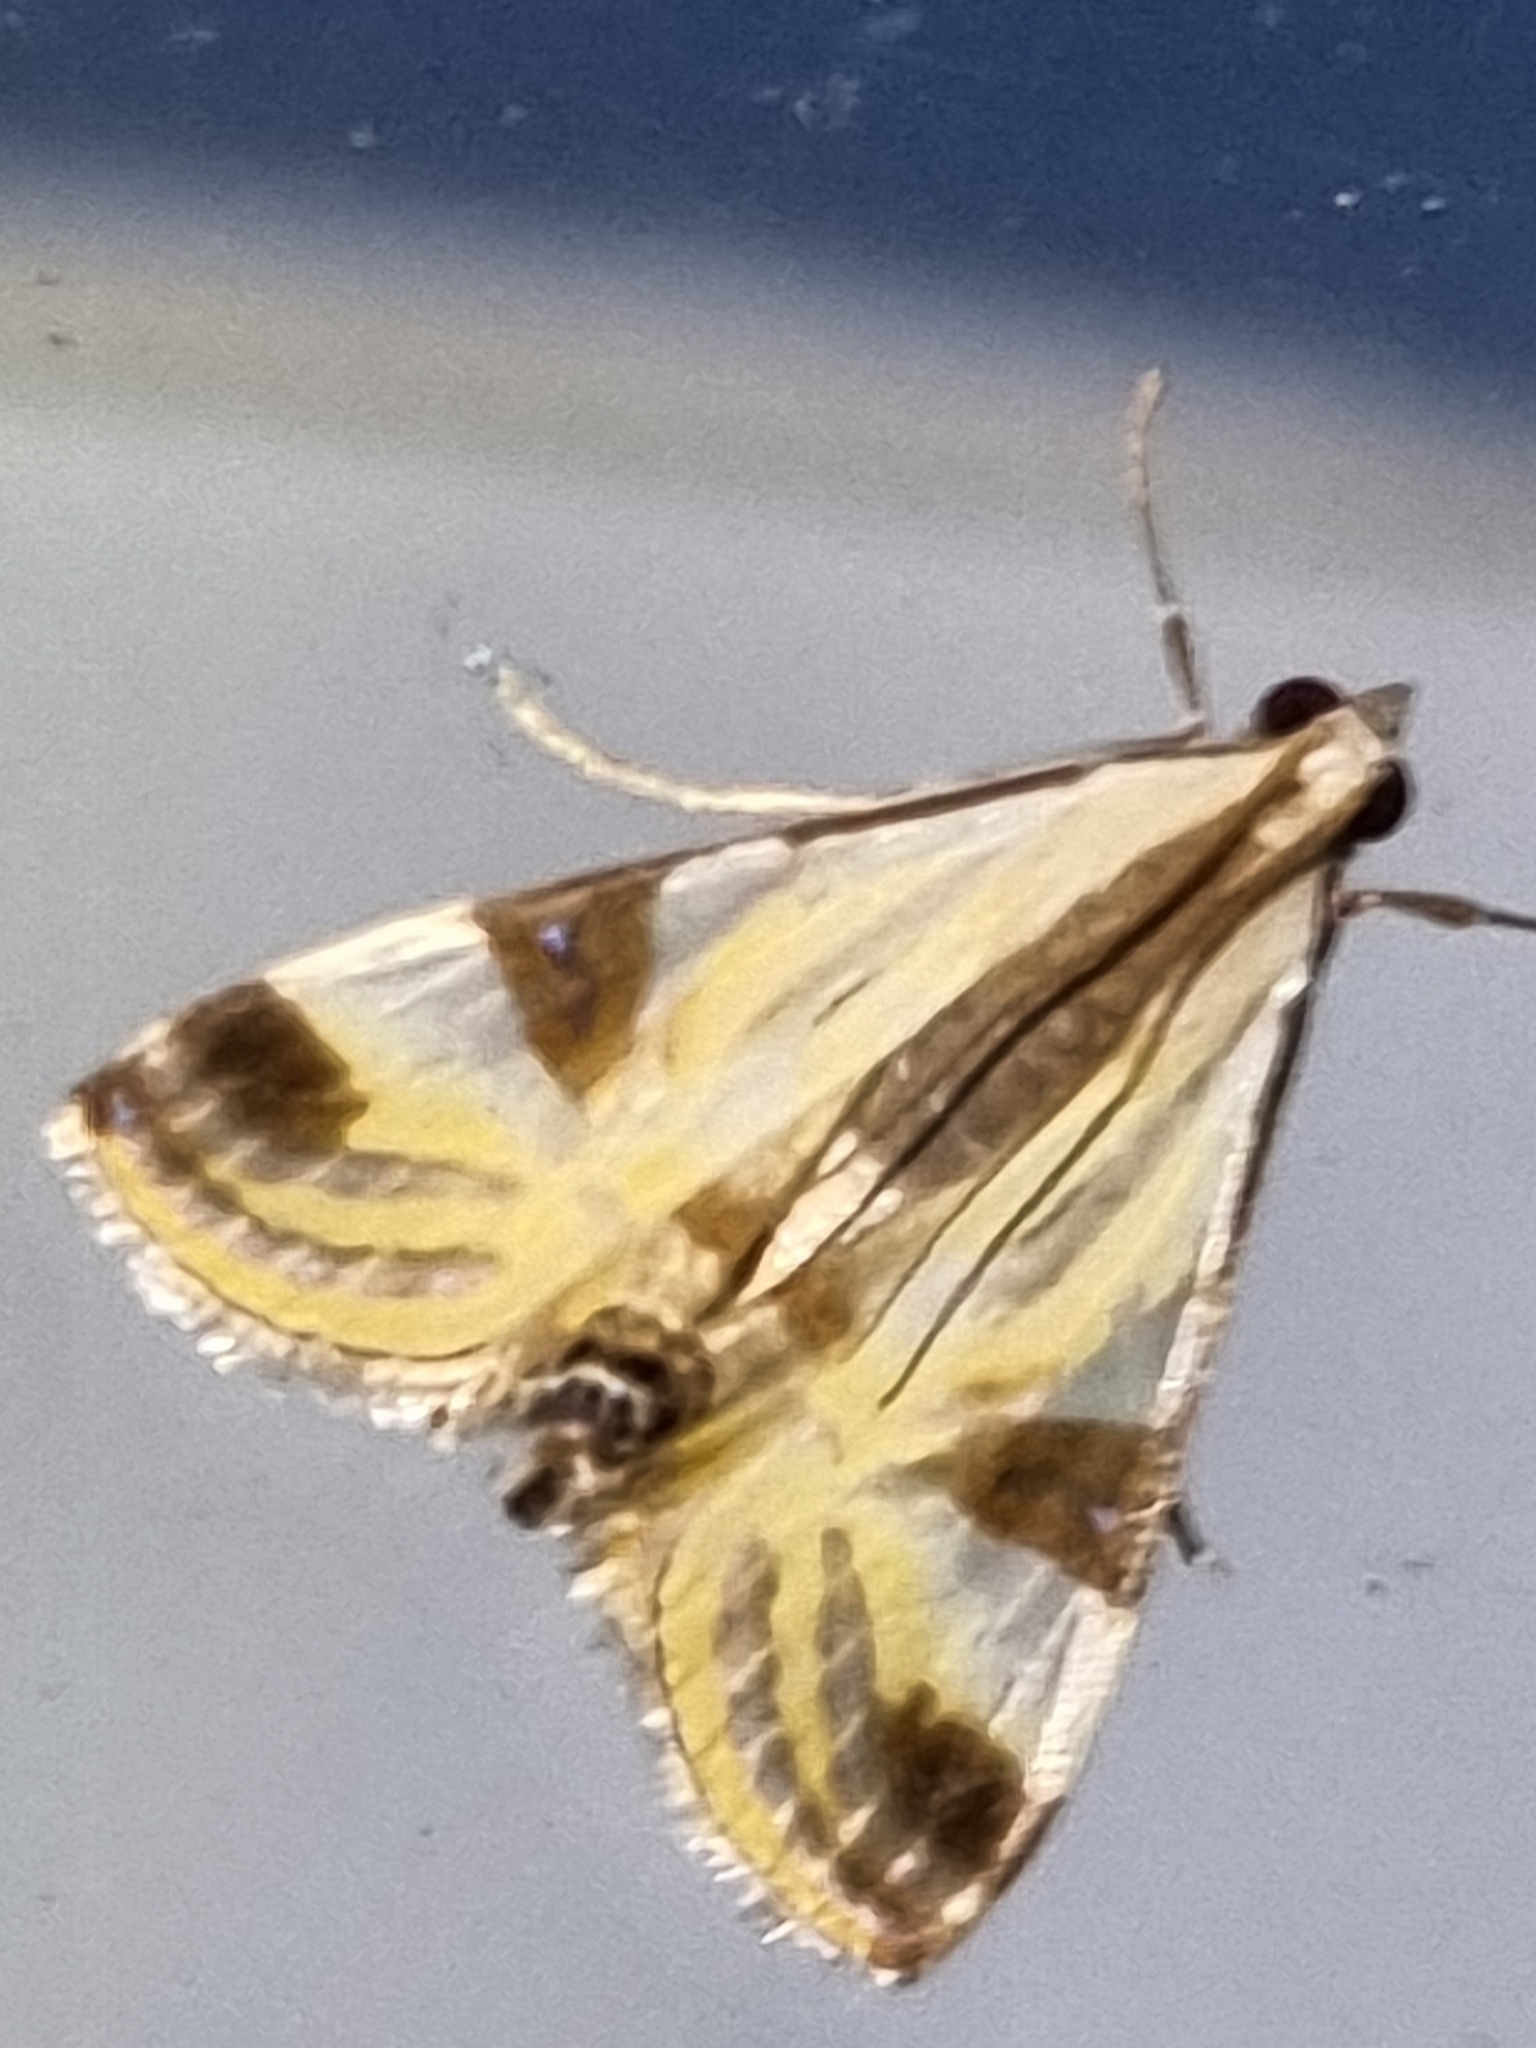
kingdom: Animalia
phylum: Arthropoda
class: Insecta
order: Lepidoptera
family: Crambidae
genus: Talanga
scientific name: Talanga tolumnialis
